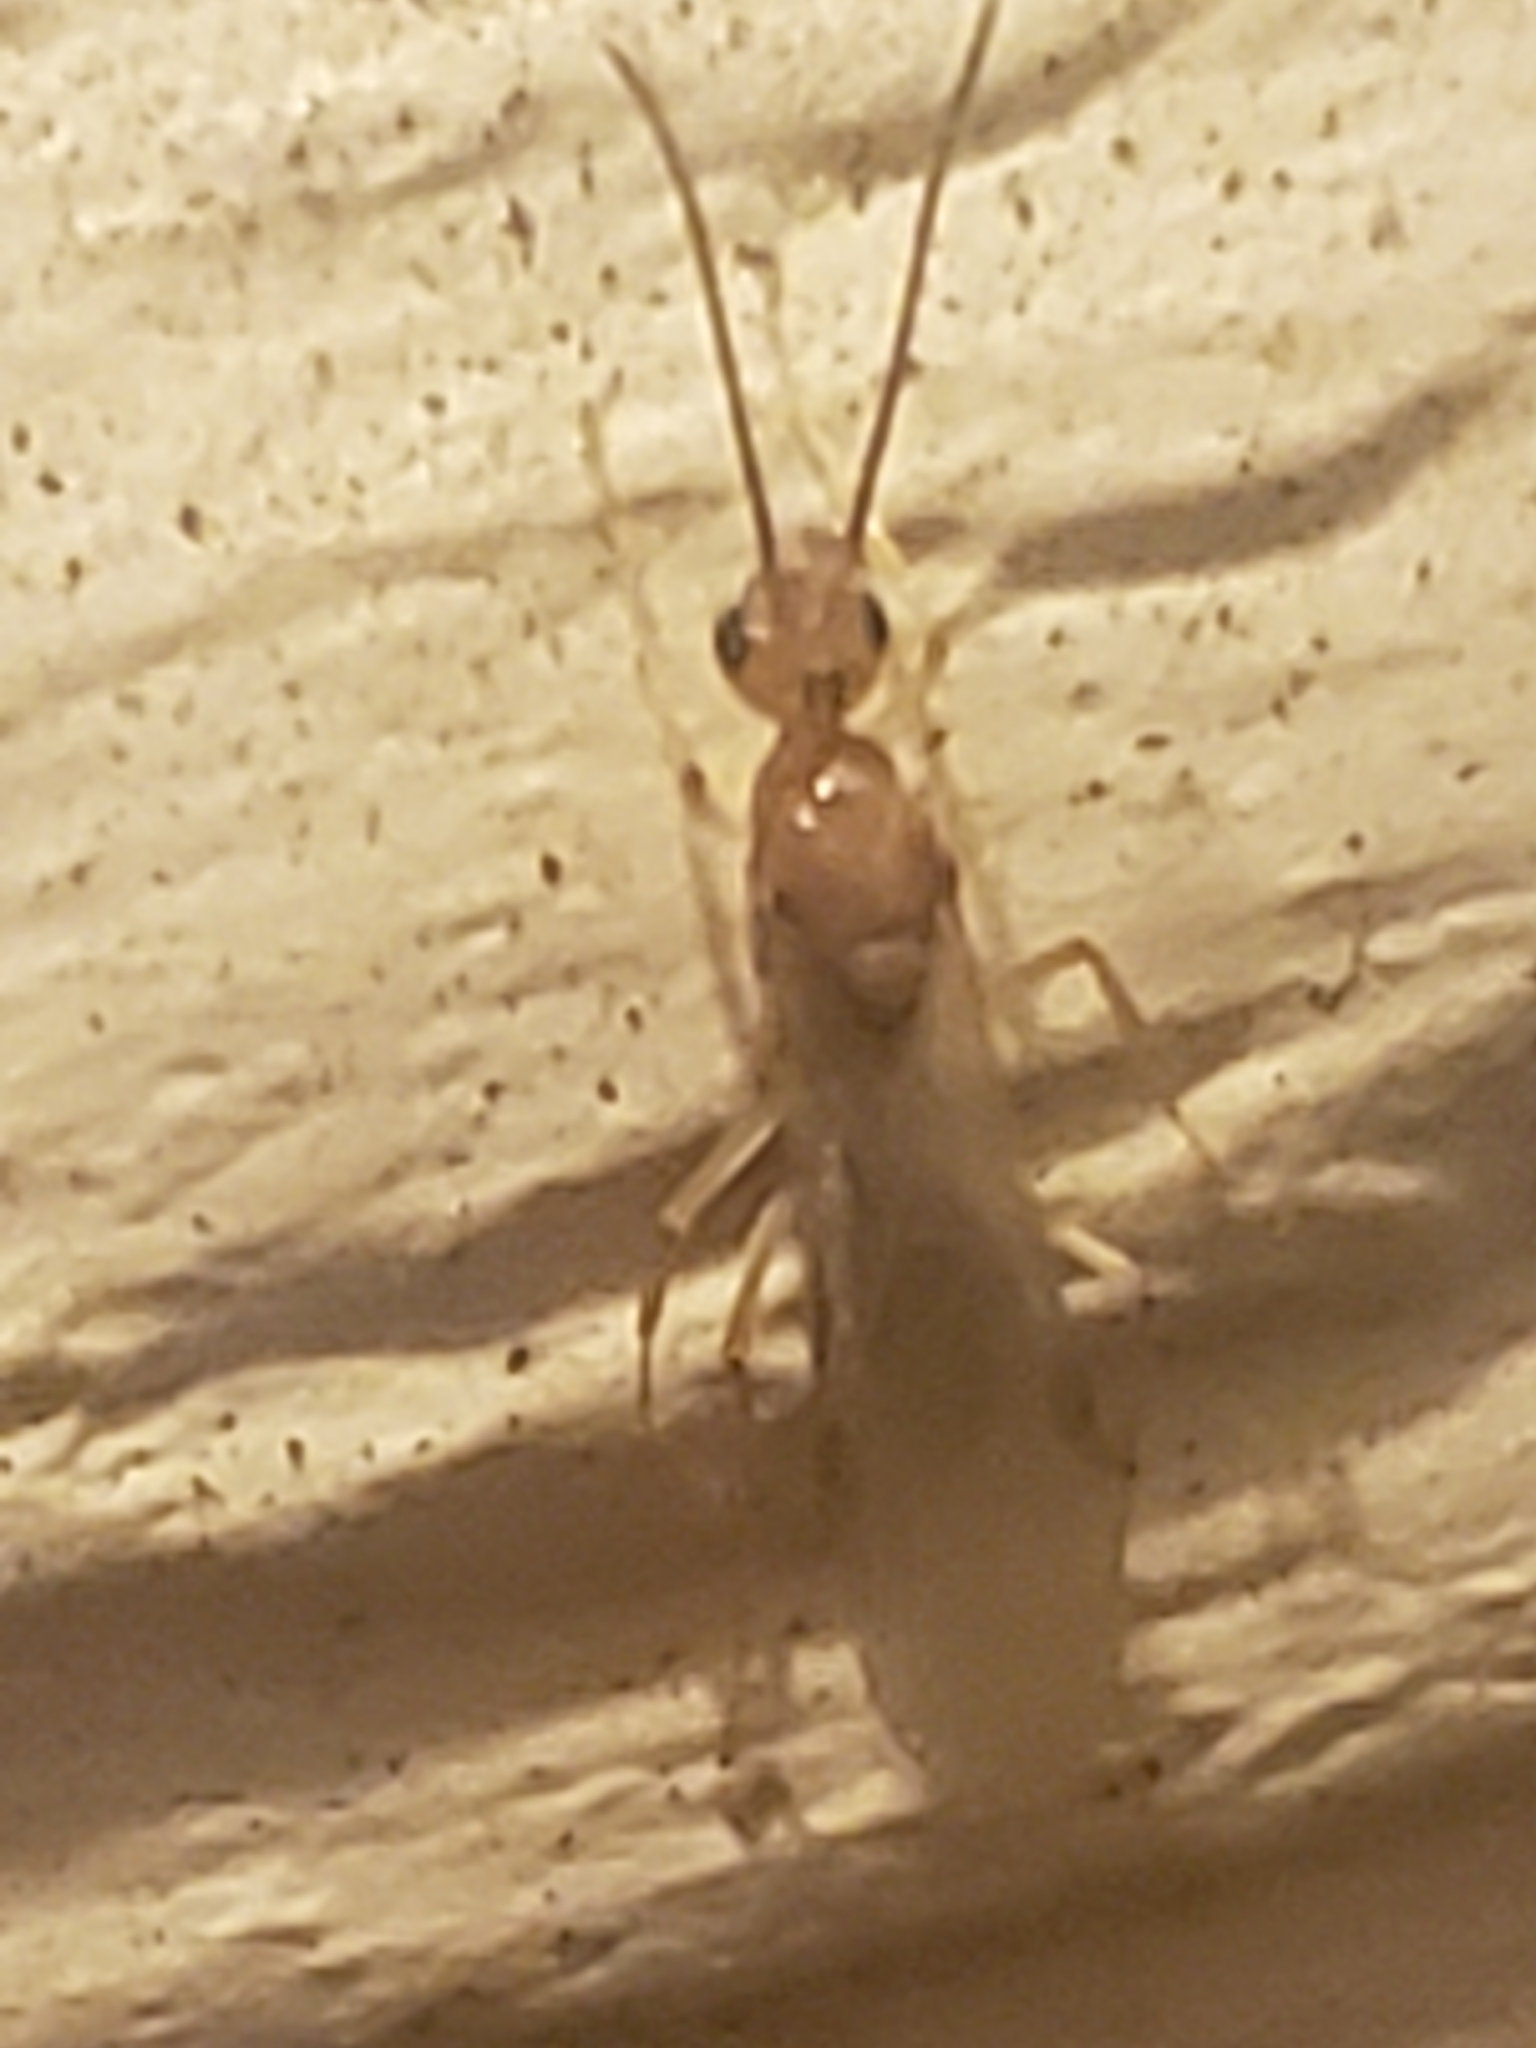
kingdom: Animalia
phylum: Arthropoda
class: Insecta
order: Hymenoptera
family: Formicidae
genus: Pachycondyla
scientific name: Pachycondyla chinensis
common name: Asian needle ant
